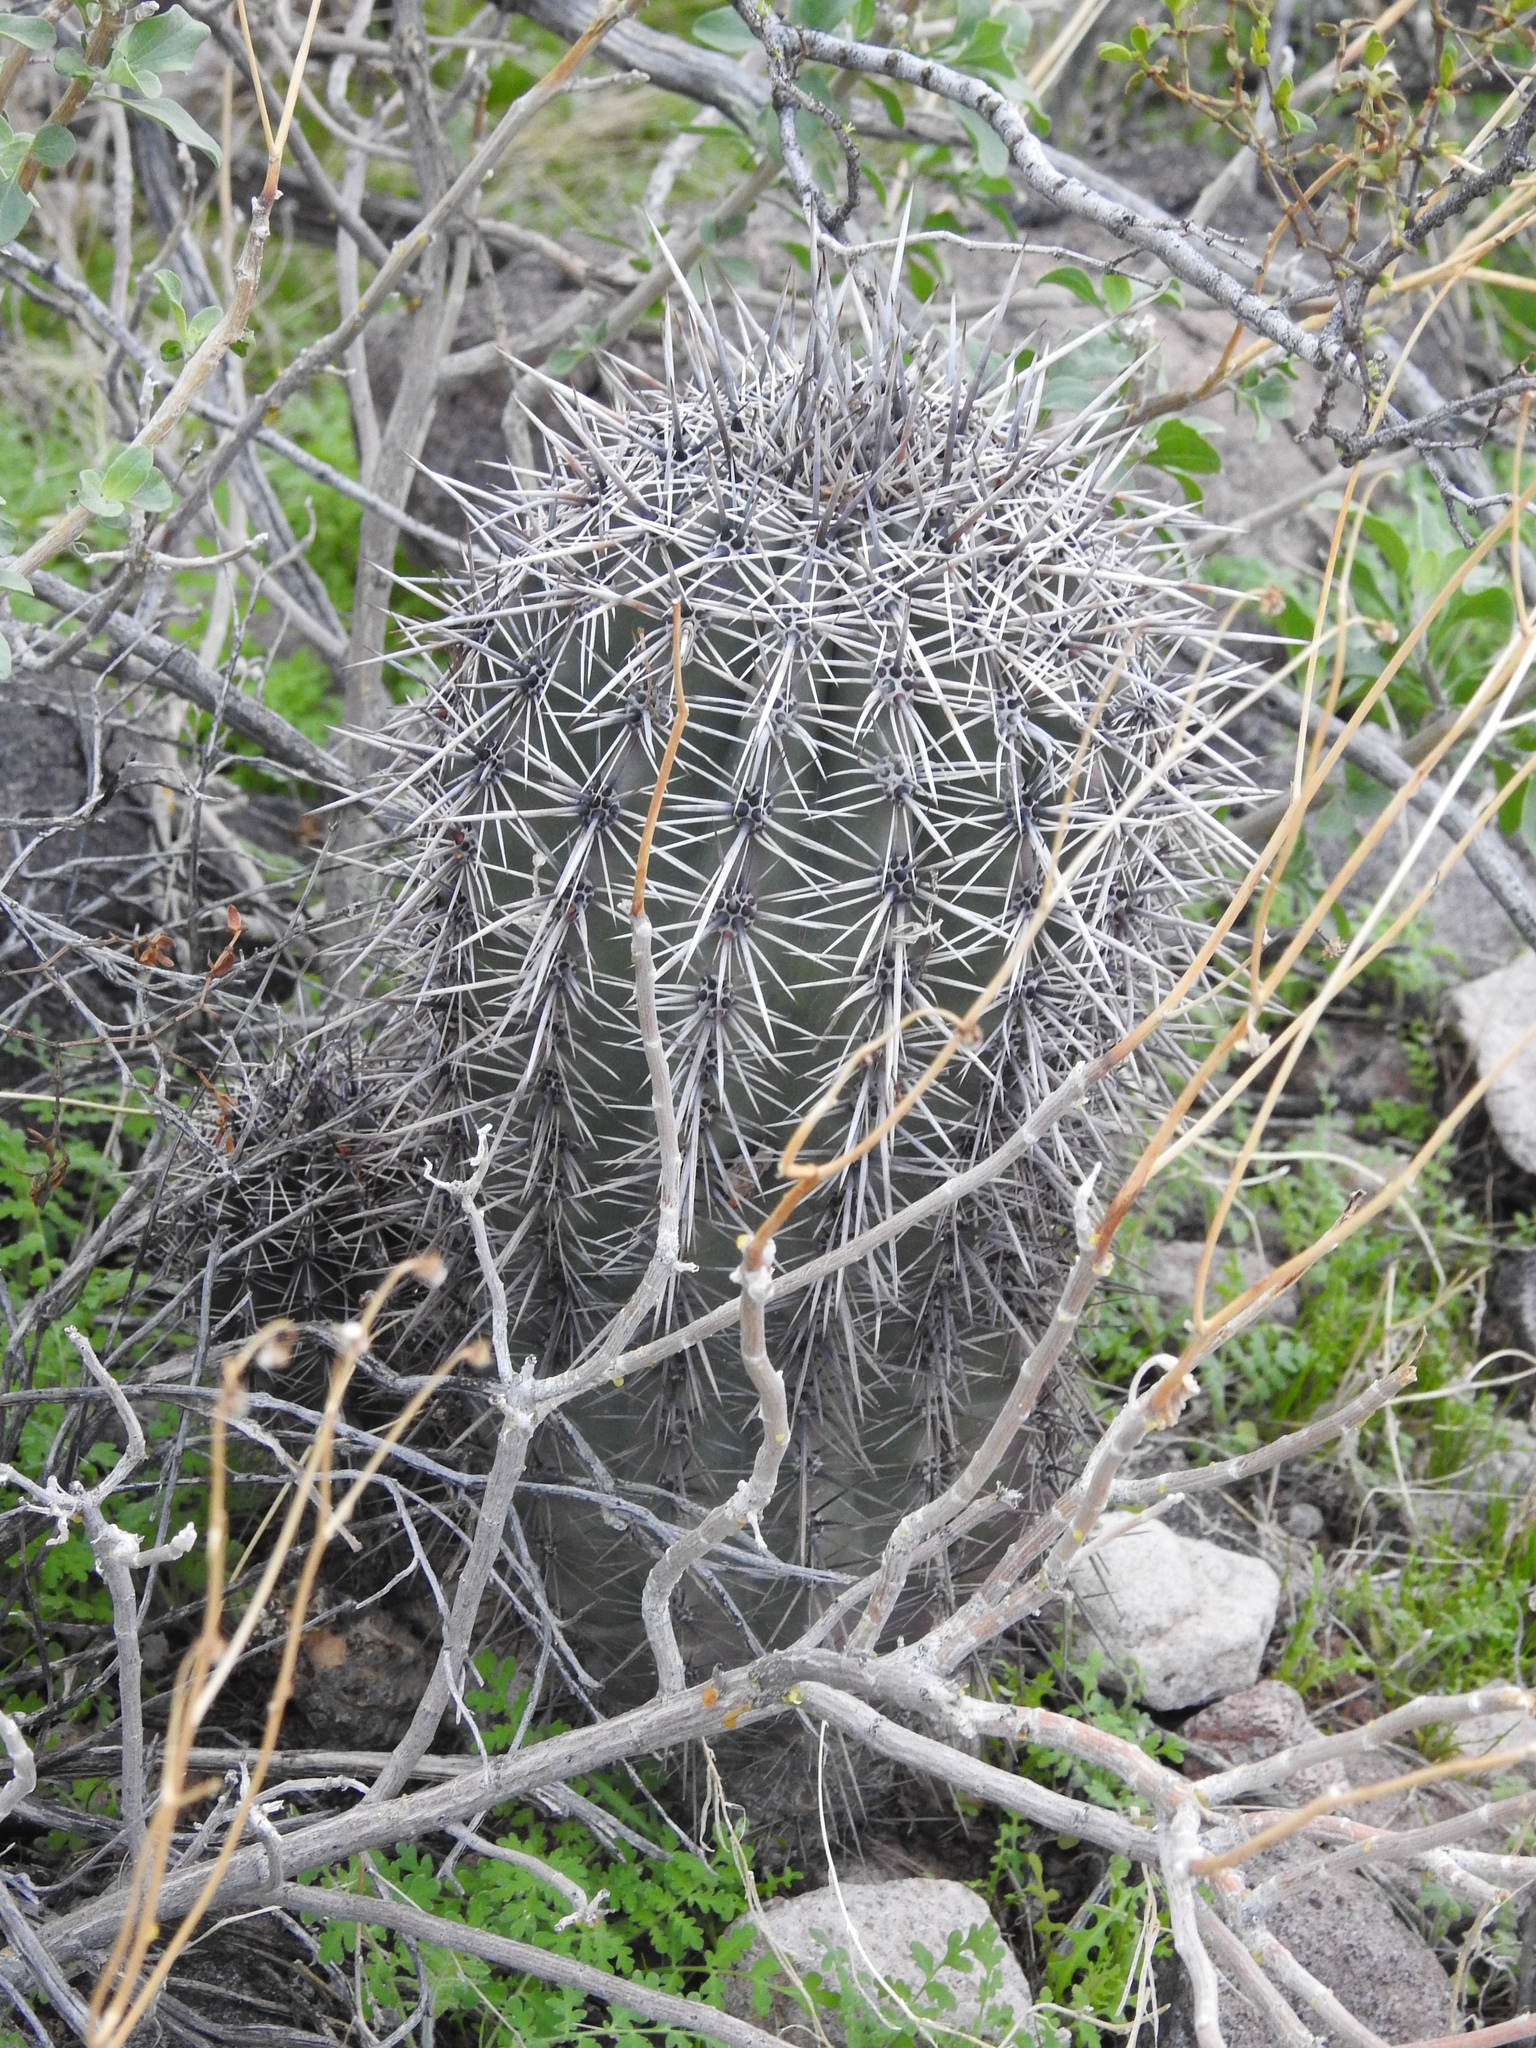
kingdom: Plantae
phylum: Tracheophyta
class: Magnoliopsida
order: Caryophyllales
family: Cactaceae
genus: Carnegiea
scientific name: Carnegiea gigantea
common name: Saguaro
